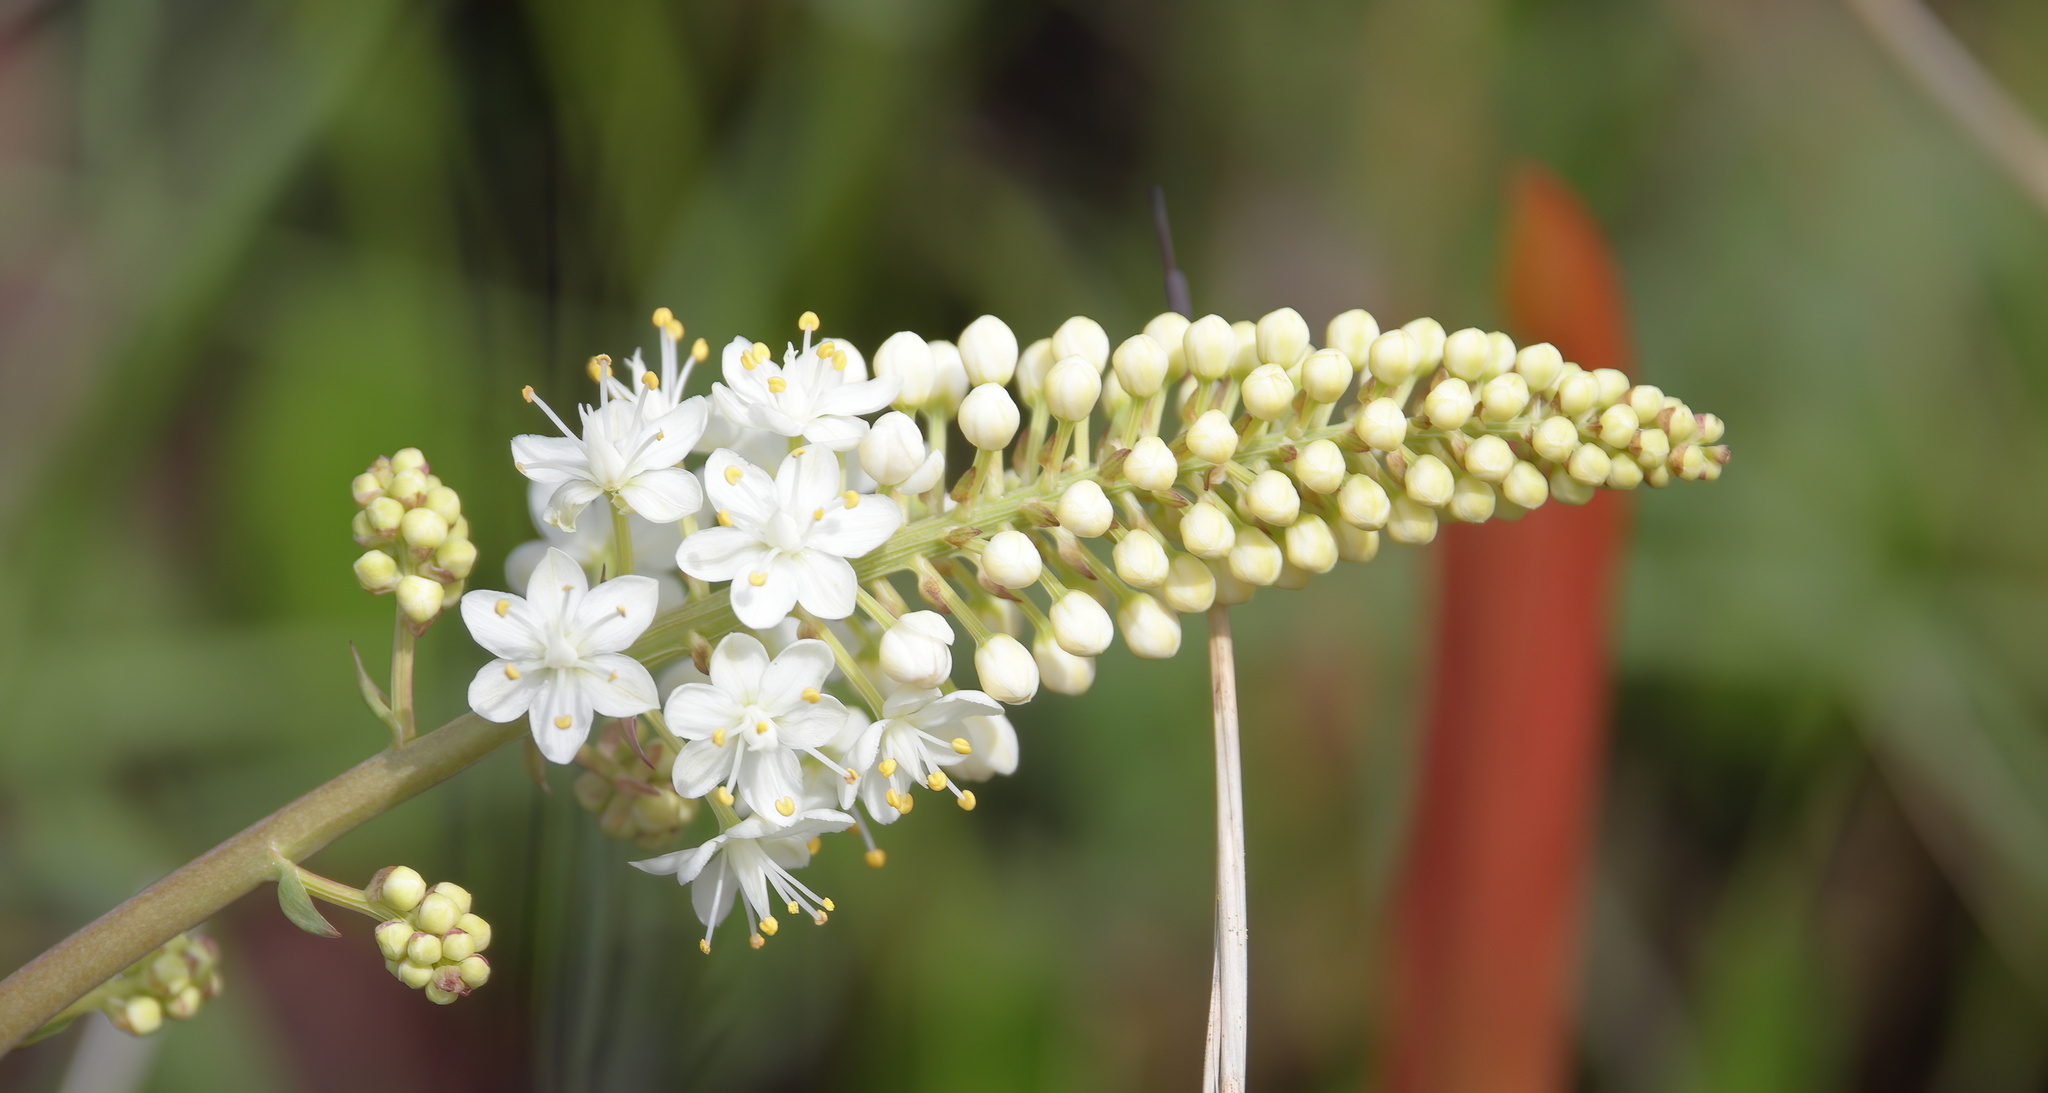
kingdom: Plantae
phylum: Tracheophyta
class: Liliopsida
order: Liliales
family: Melanthiaceae
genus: Stenanthium
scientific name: Stenanthium texanum
